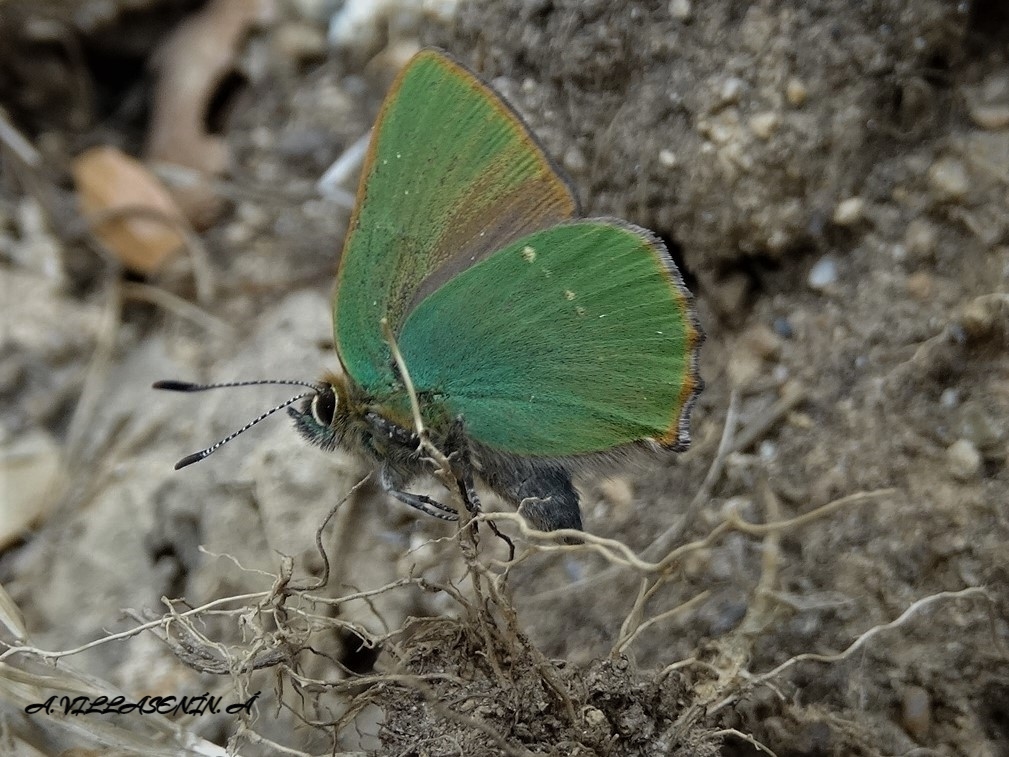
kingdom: Animalia
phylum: Arthropoda
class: Insecta
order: Lepidoptera
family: Lycaenidae
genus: Callophrys
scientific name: Callophrys rubi
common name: Green hairstreak
